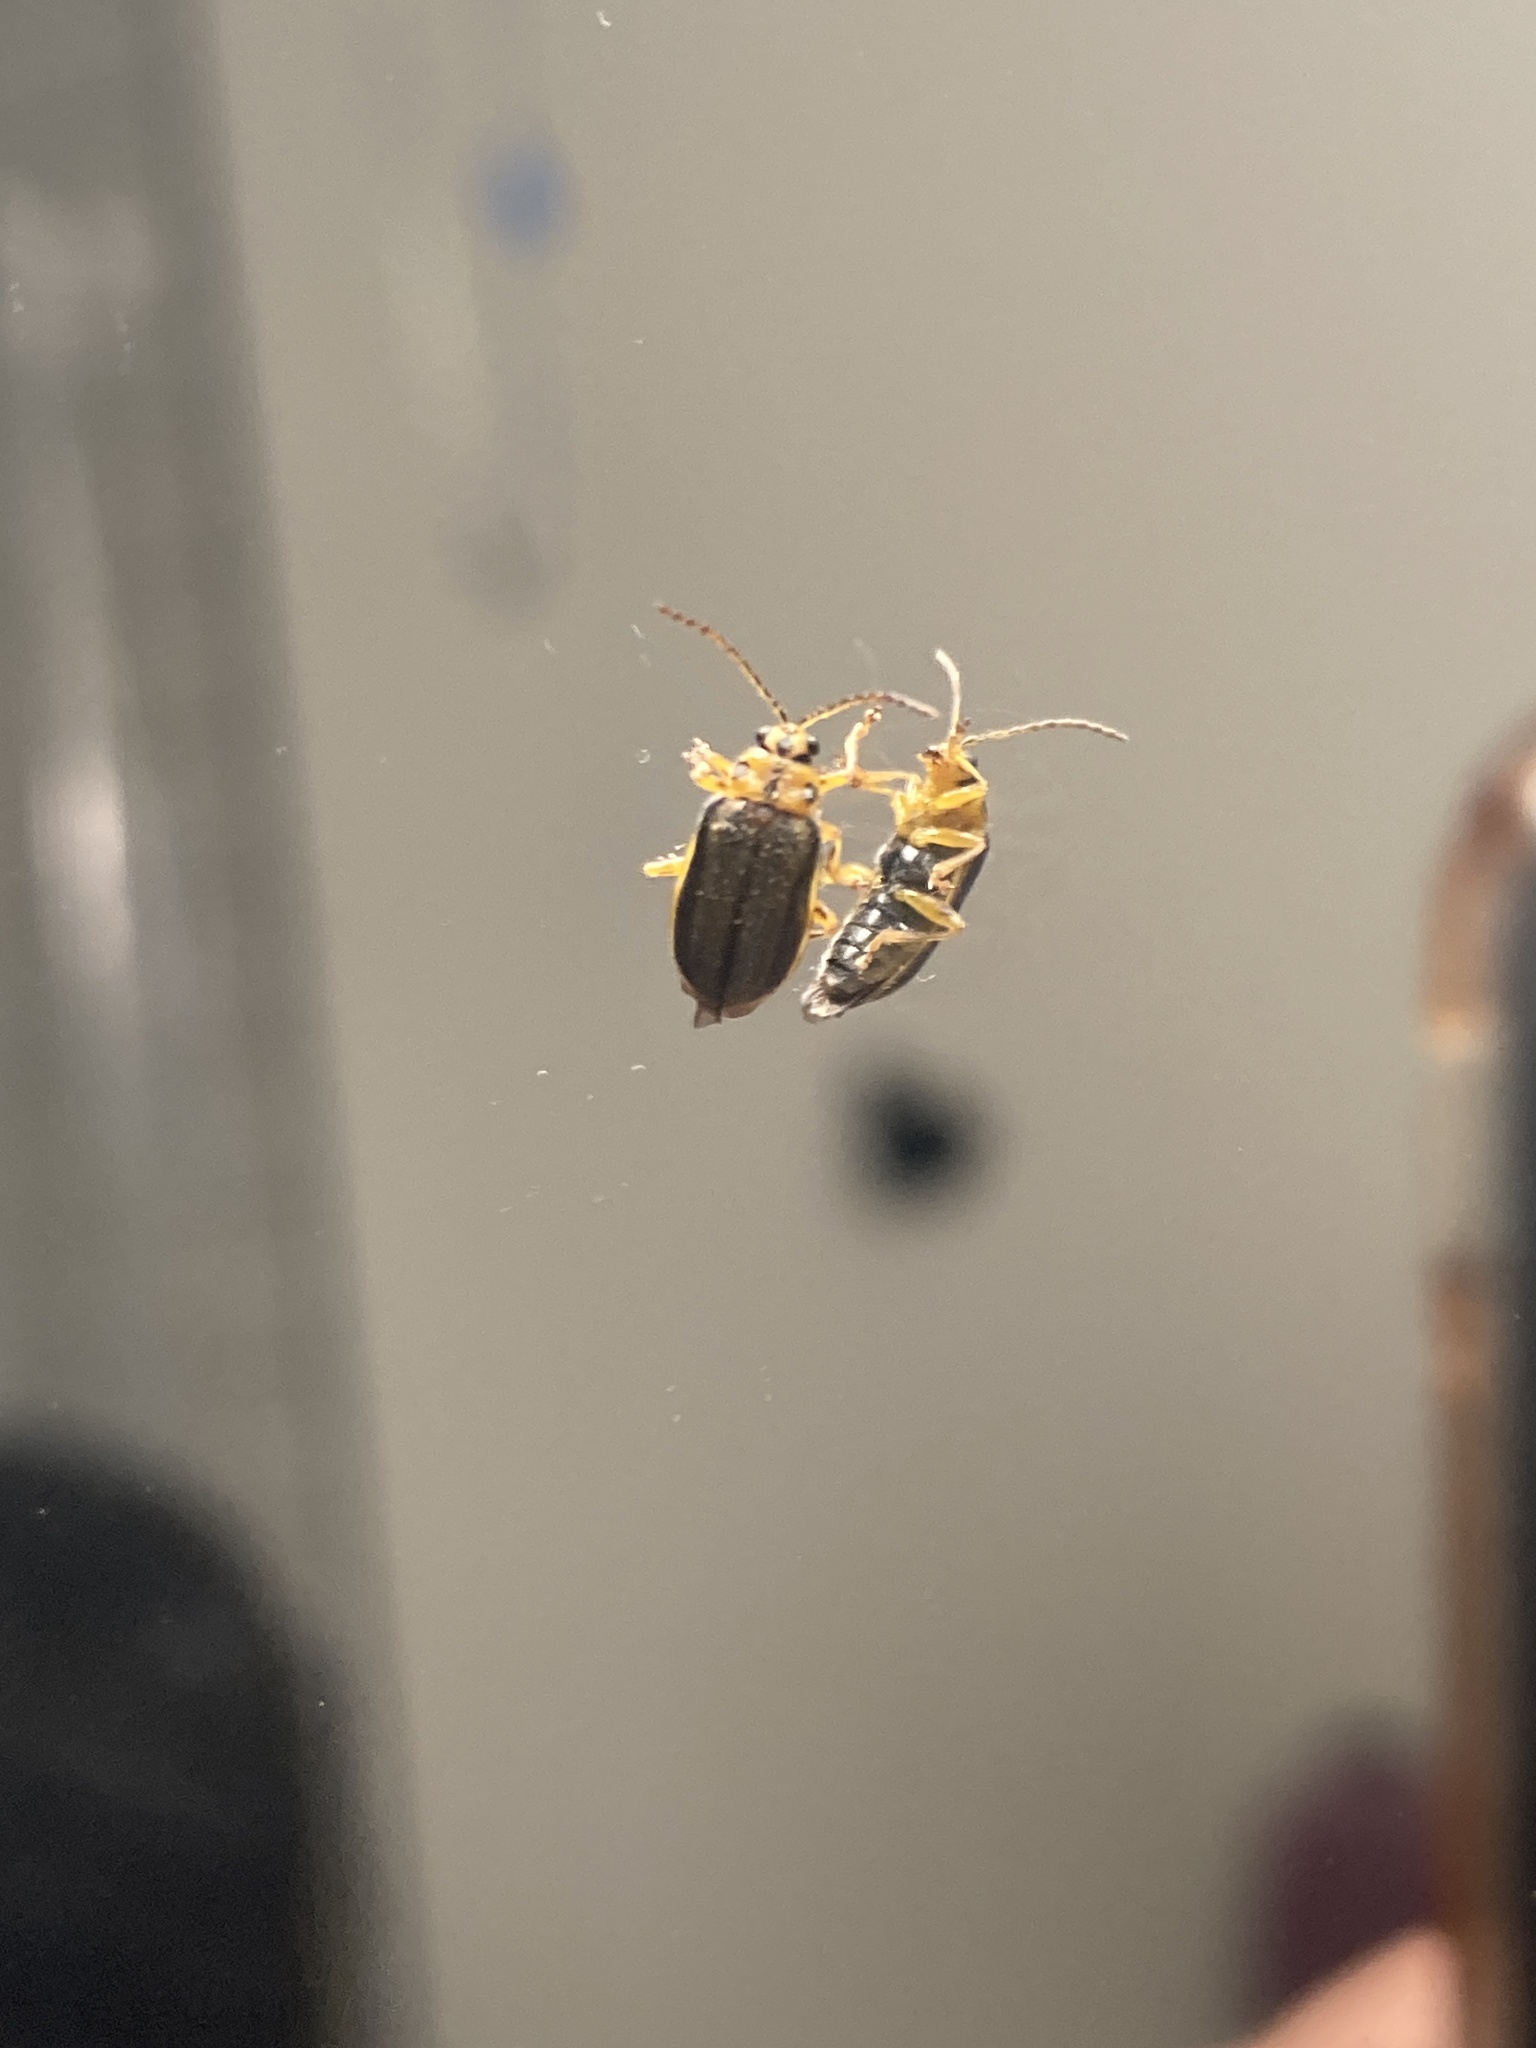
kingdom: Animalia
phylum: Arthropoda
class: Insecta
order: Coleoptera
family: Chrysomelidae
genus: Xanthogaleruca
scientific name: Xanthogaleruca luteola
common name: Elm leaf beetle
